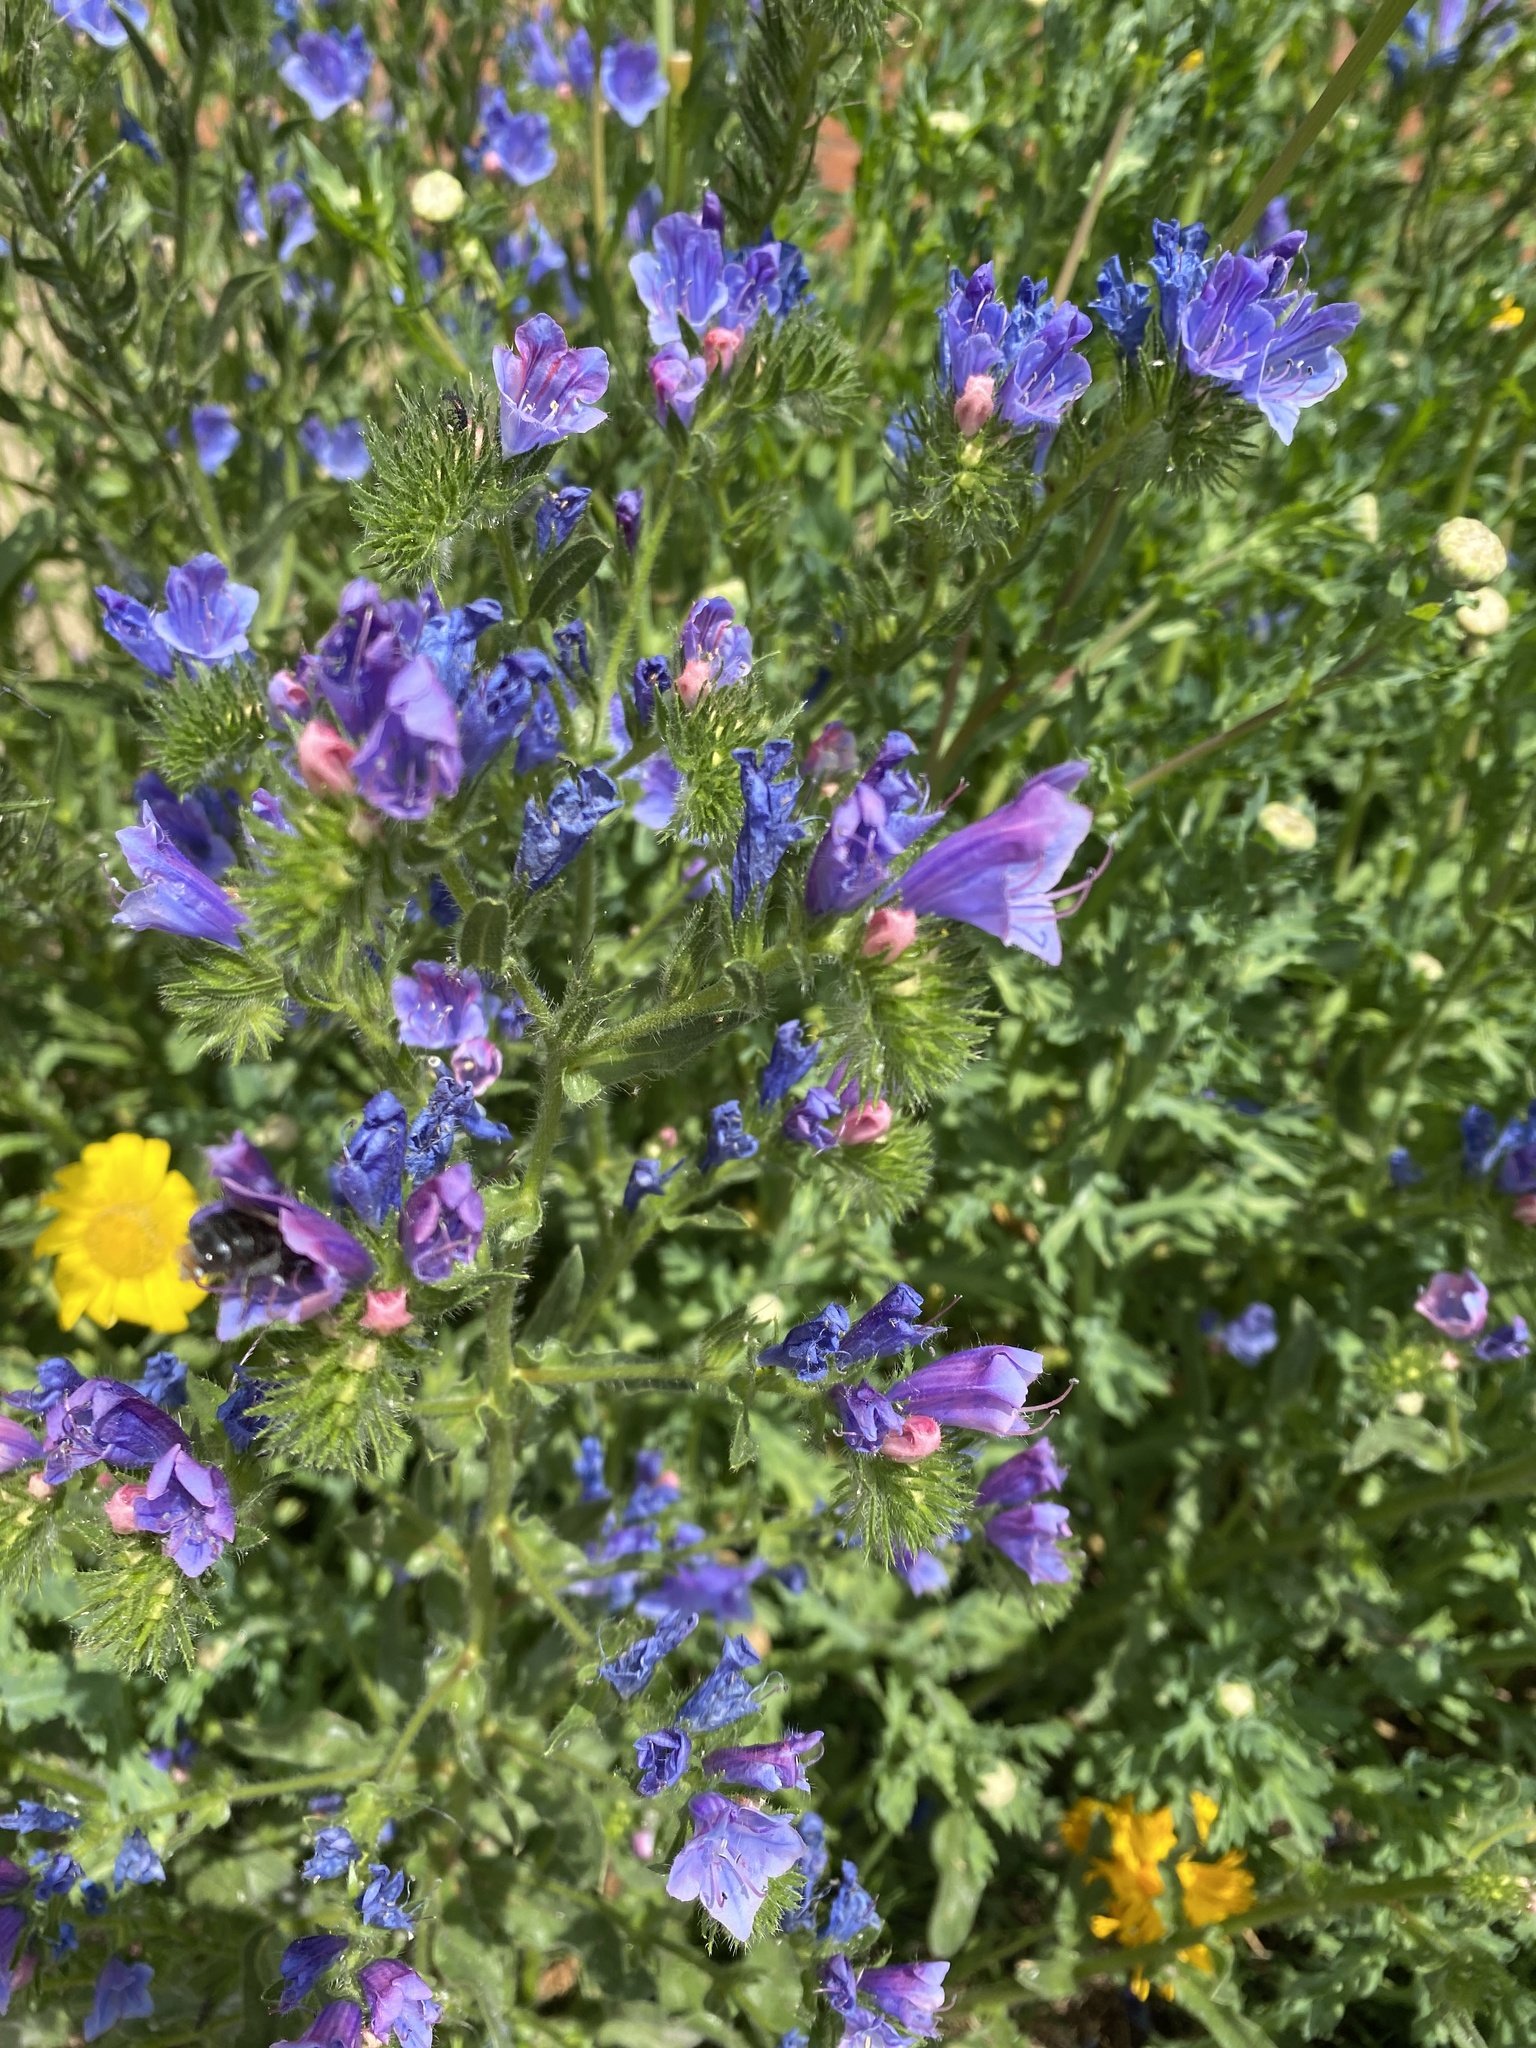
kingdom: Plantae
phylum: Tracheophyta
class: Magnoliopsida
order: Boraginales
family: Boraginaceae
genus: Echium
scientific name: Echium vulgare
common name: Common viper's bugloss
